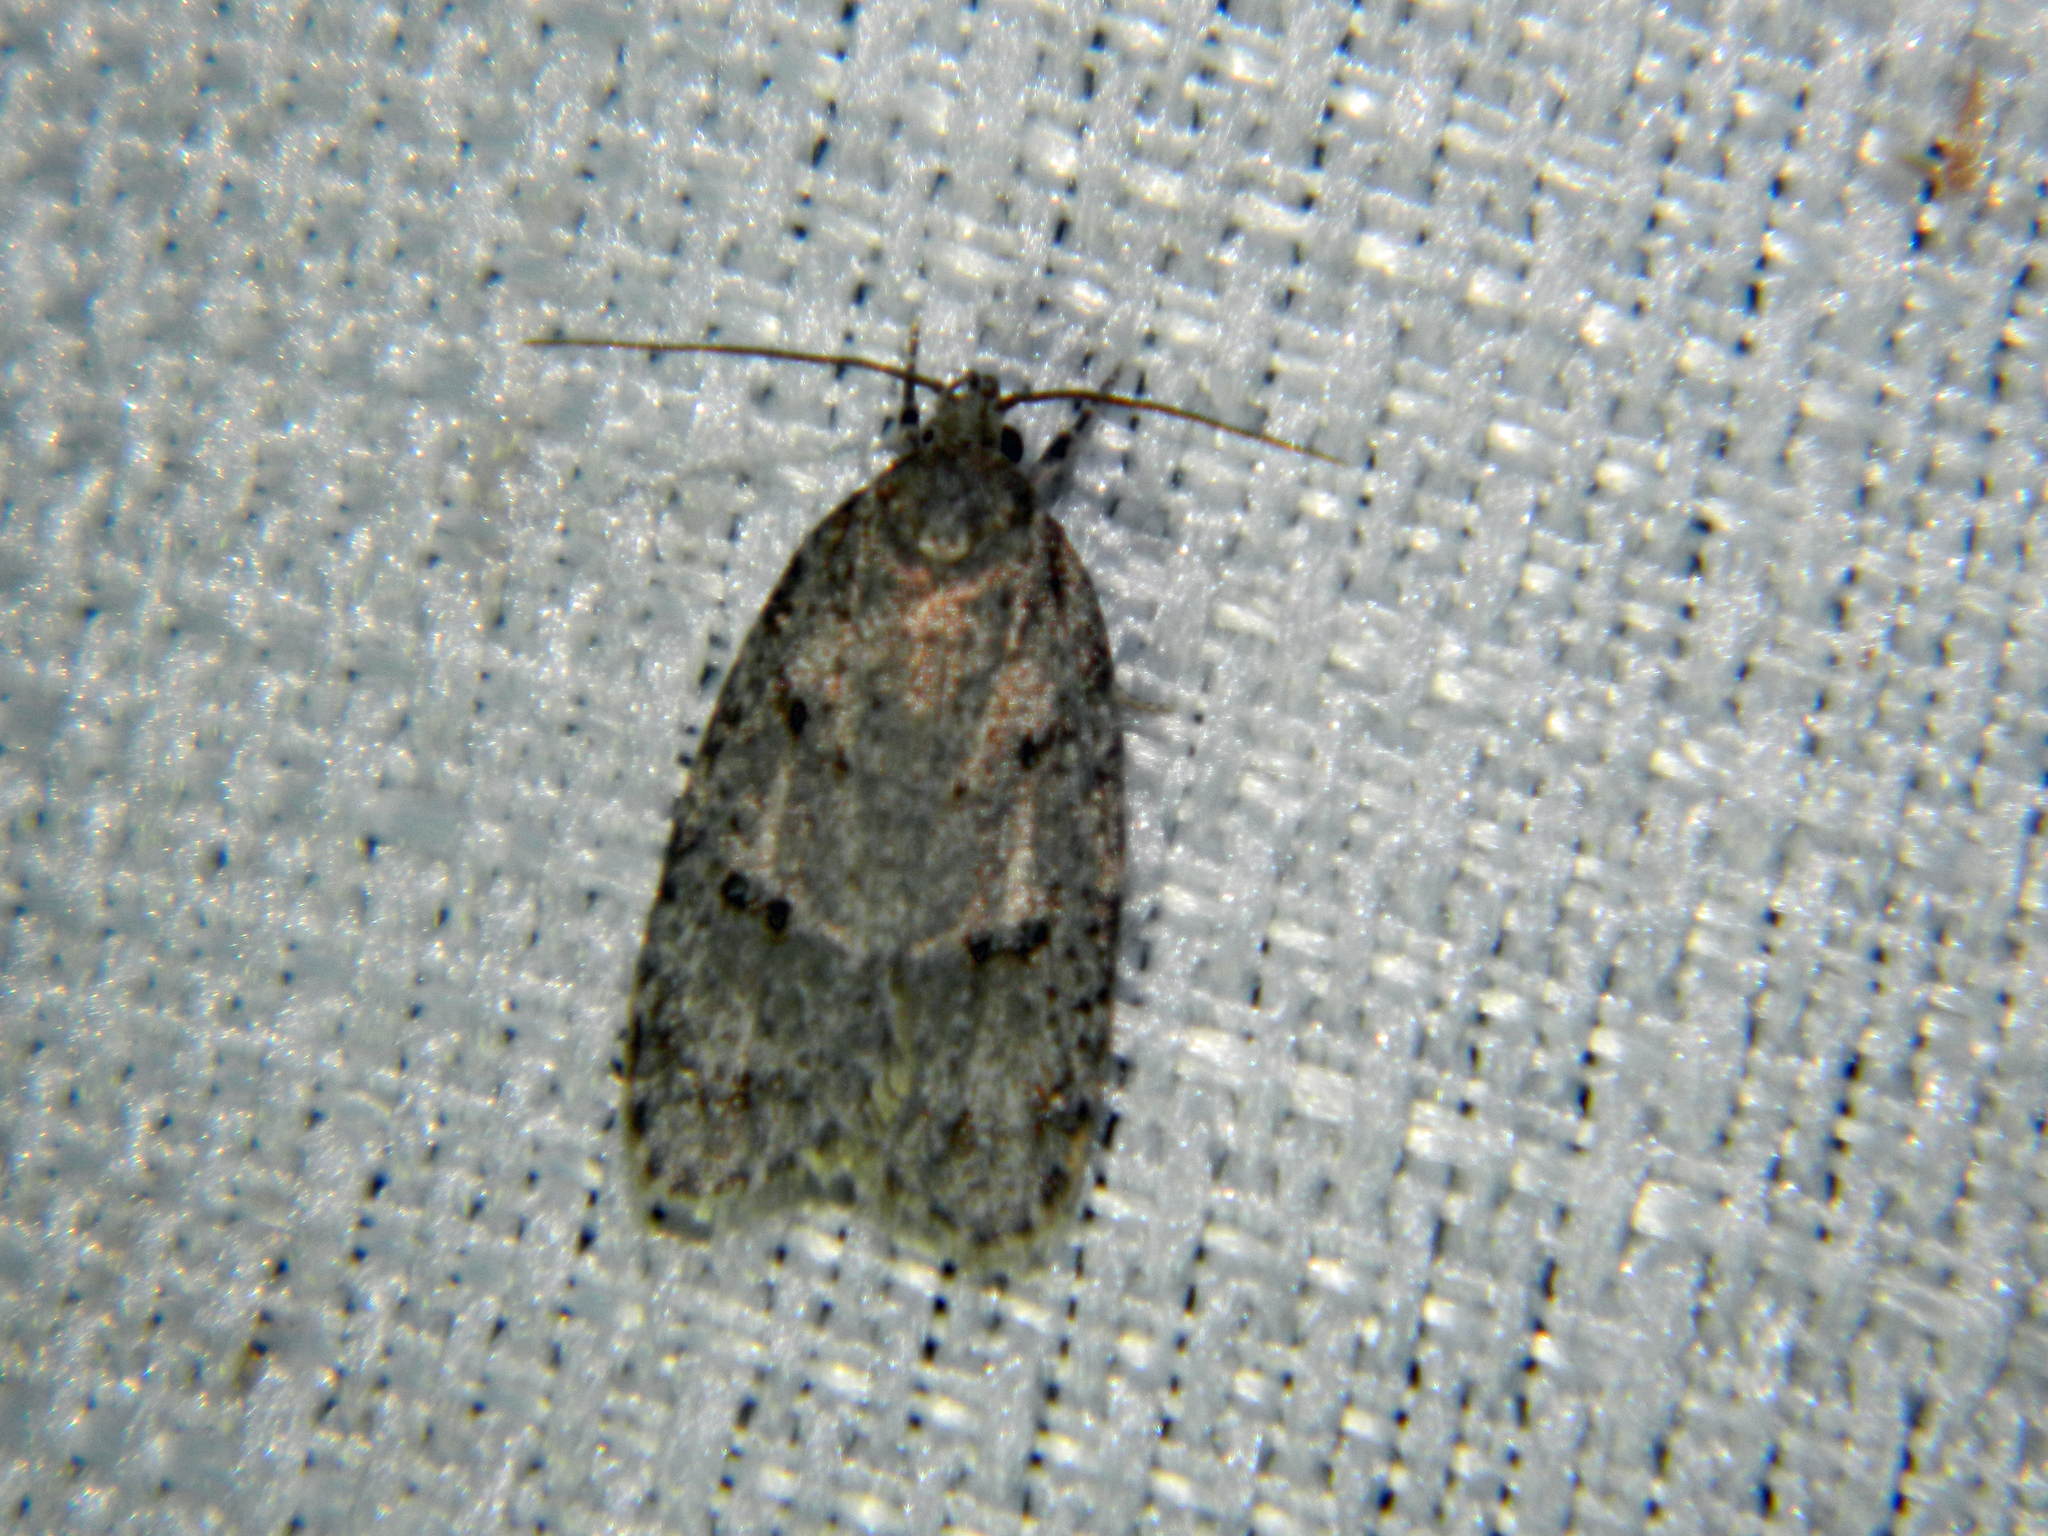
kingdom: Animalia
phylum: Arthropoda
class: Insecta
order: Lepidoptera
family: Depressariidae
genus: Bibarrambla
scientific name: Bibarrambla allenella
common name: Bog bibarrambla moth
